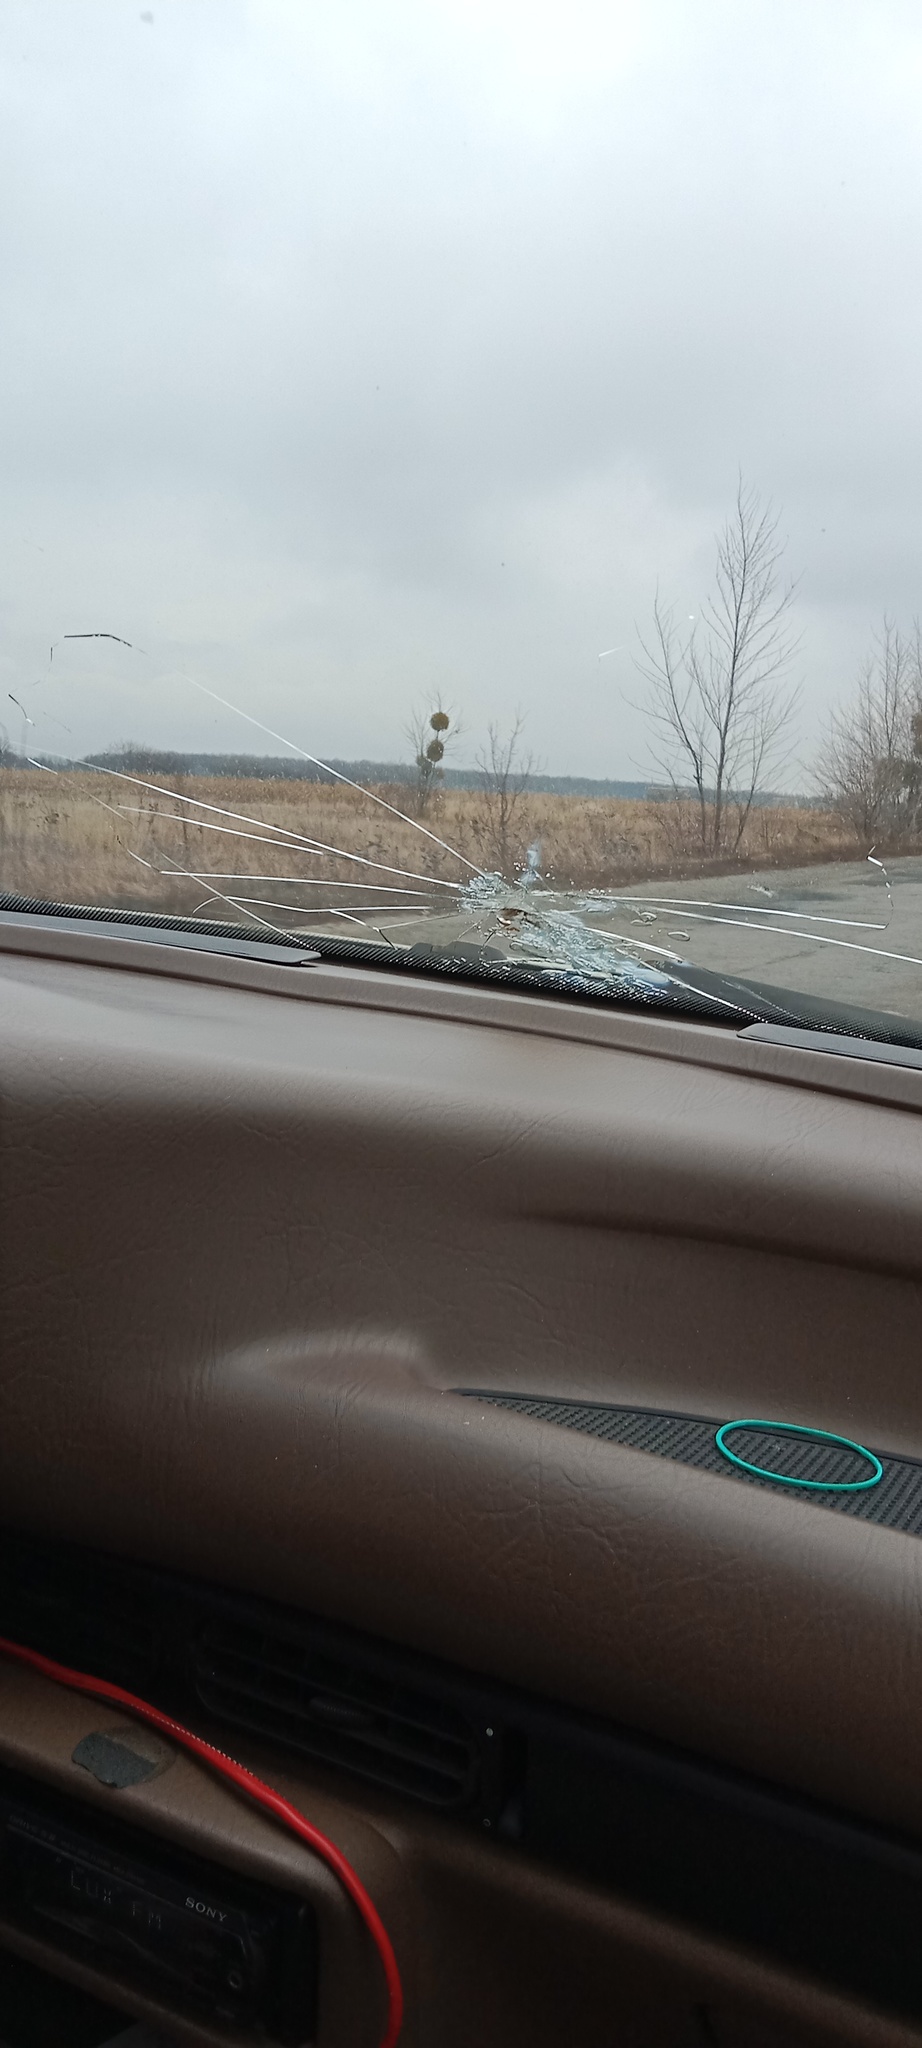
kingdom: Plantae
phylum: Tracheophyta
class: Magnoliopsida
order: Santalales
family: Viscaceae
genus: Viscum
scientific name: Viscum album
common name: Mistletoe
